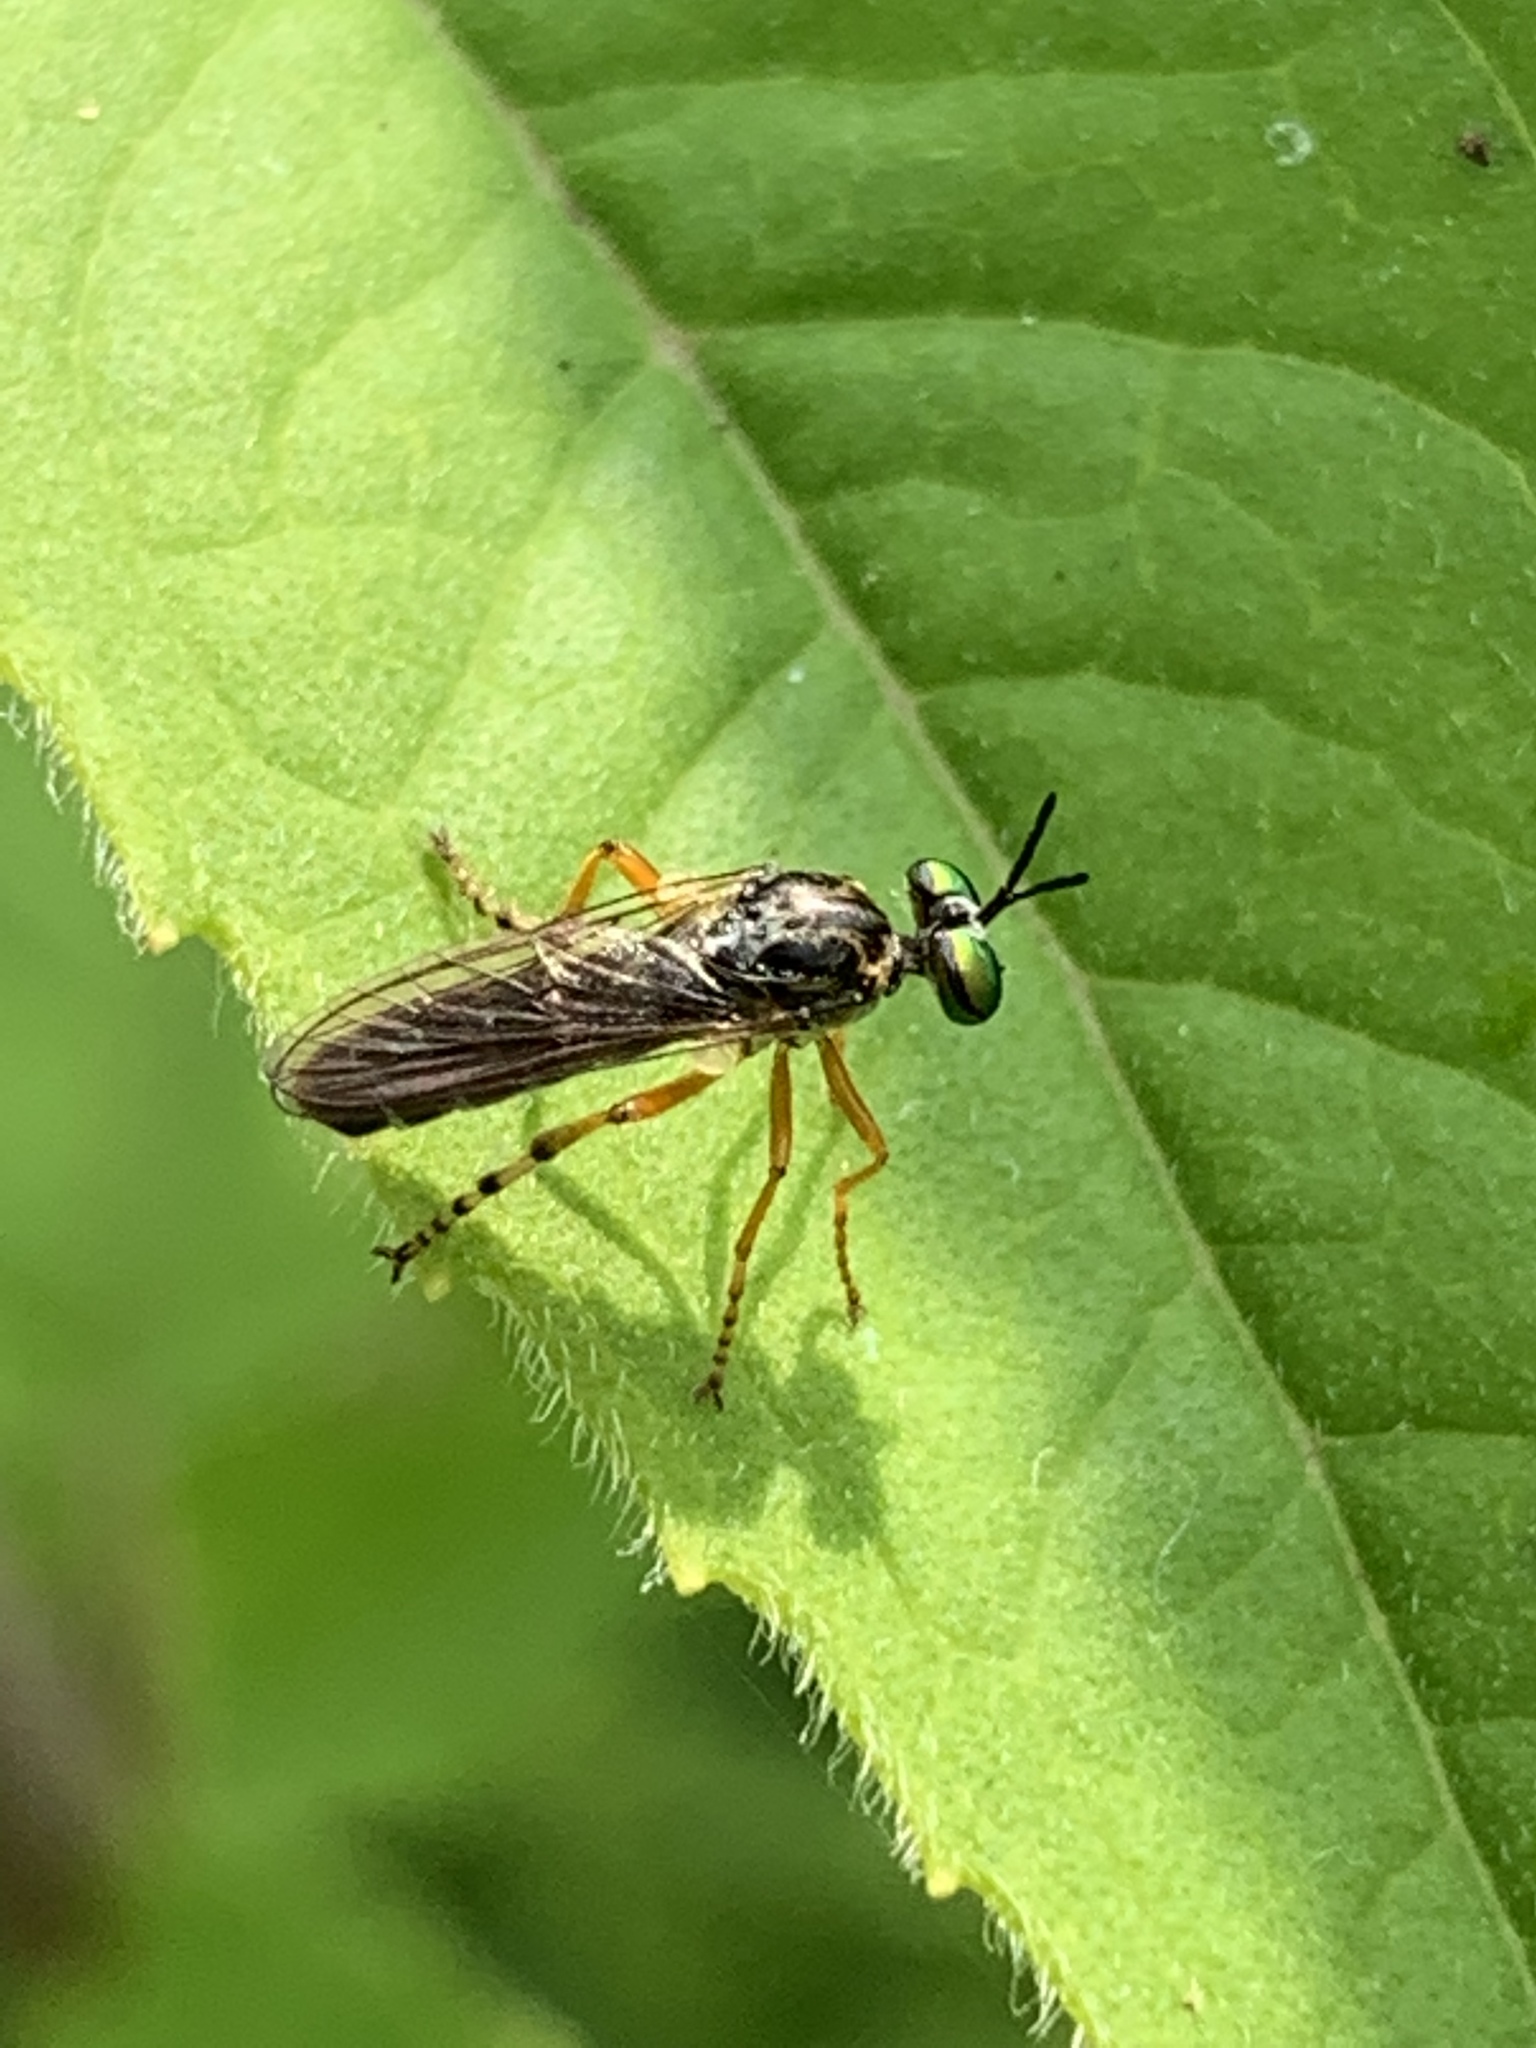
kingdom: Animalia
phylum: Arthropoda
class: Insecta
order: Diptera
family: Asilidae
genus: Taracticus
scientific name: Taracticus octopunctatus
